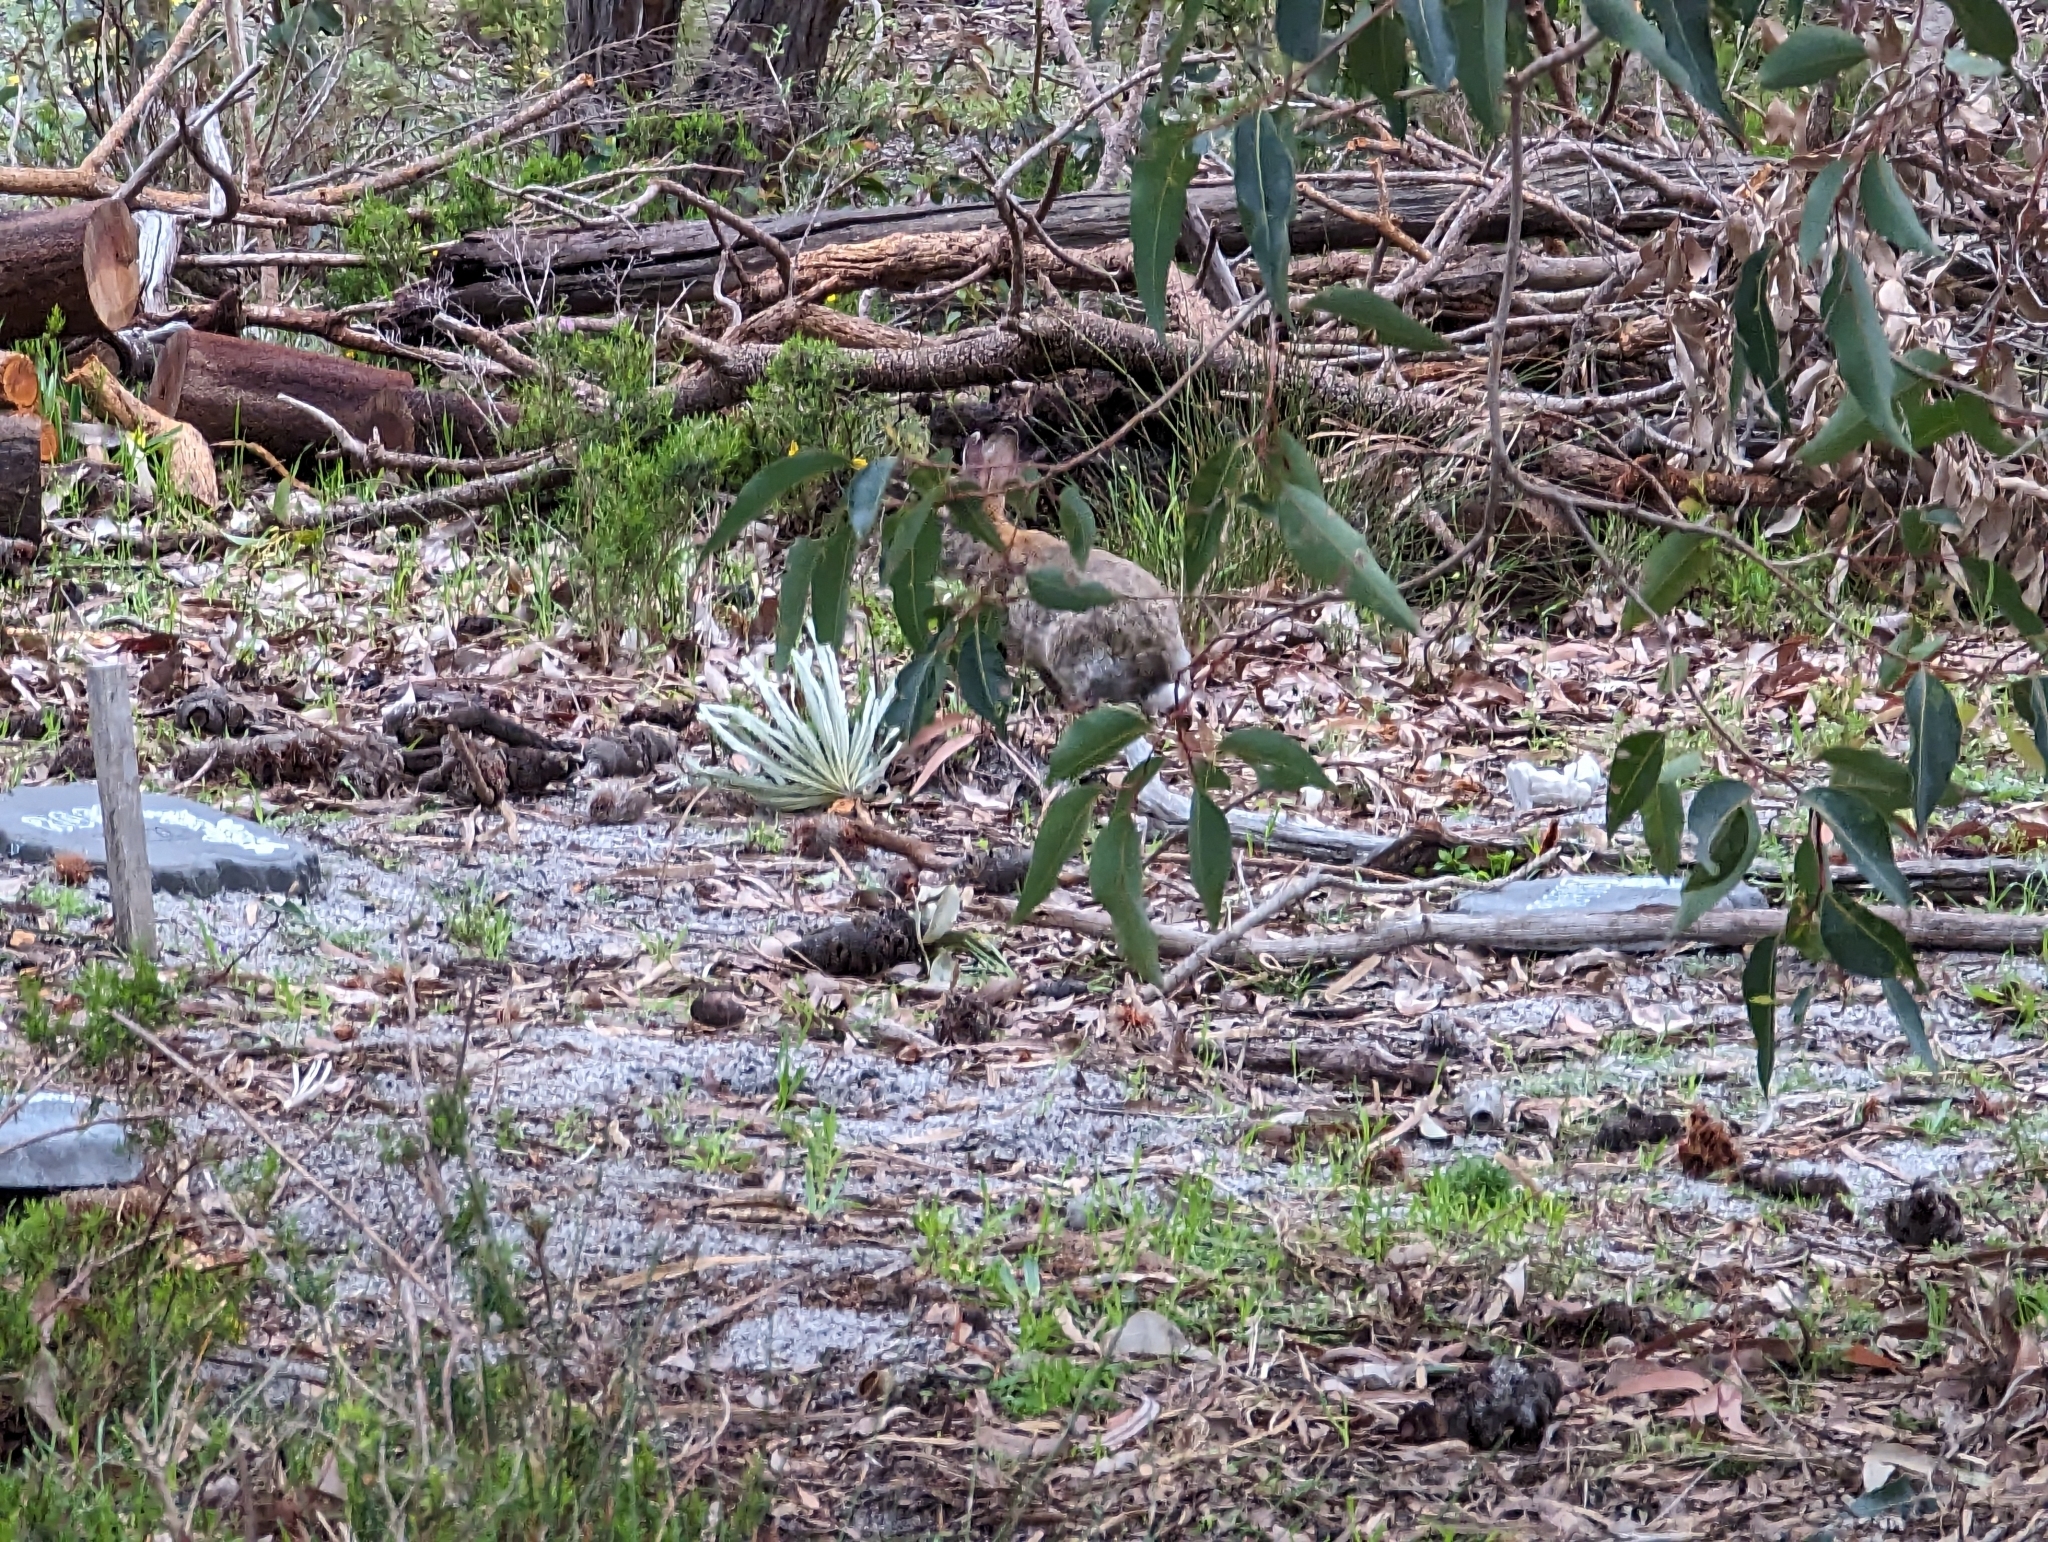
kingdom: Animalia
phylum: Chordata
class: Mammalia
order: Lagomorpha
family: Leporidae
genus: Oryctolagus
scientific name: Oryctolagus cuniculus
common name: European rabbit
